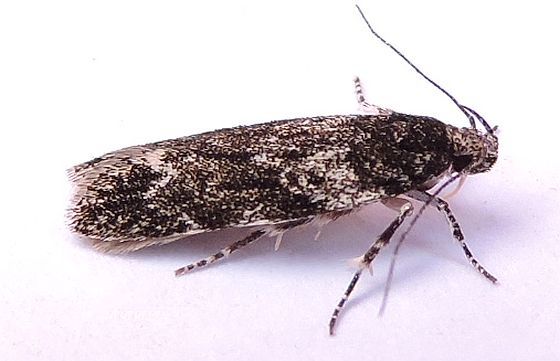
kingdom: Animalia
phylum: Arthropoda
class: Insecta
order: Lepidoptera
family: Gelechiidae
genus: Gelechia
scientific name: Gelechia lynceella
